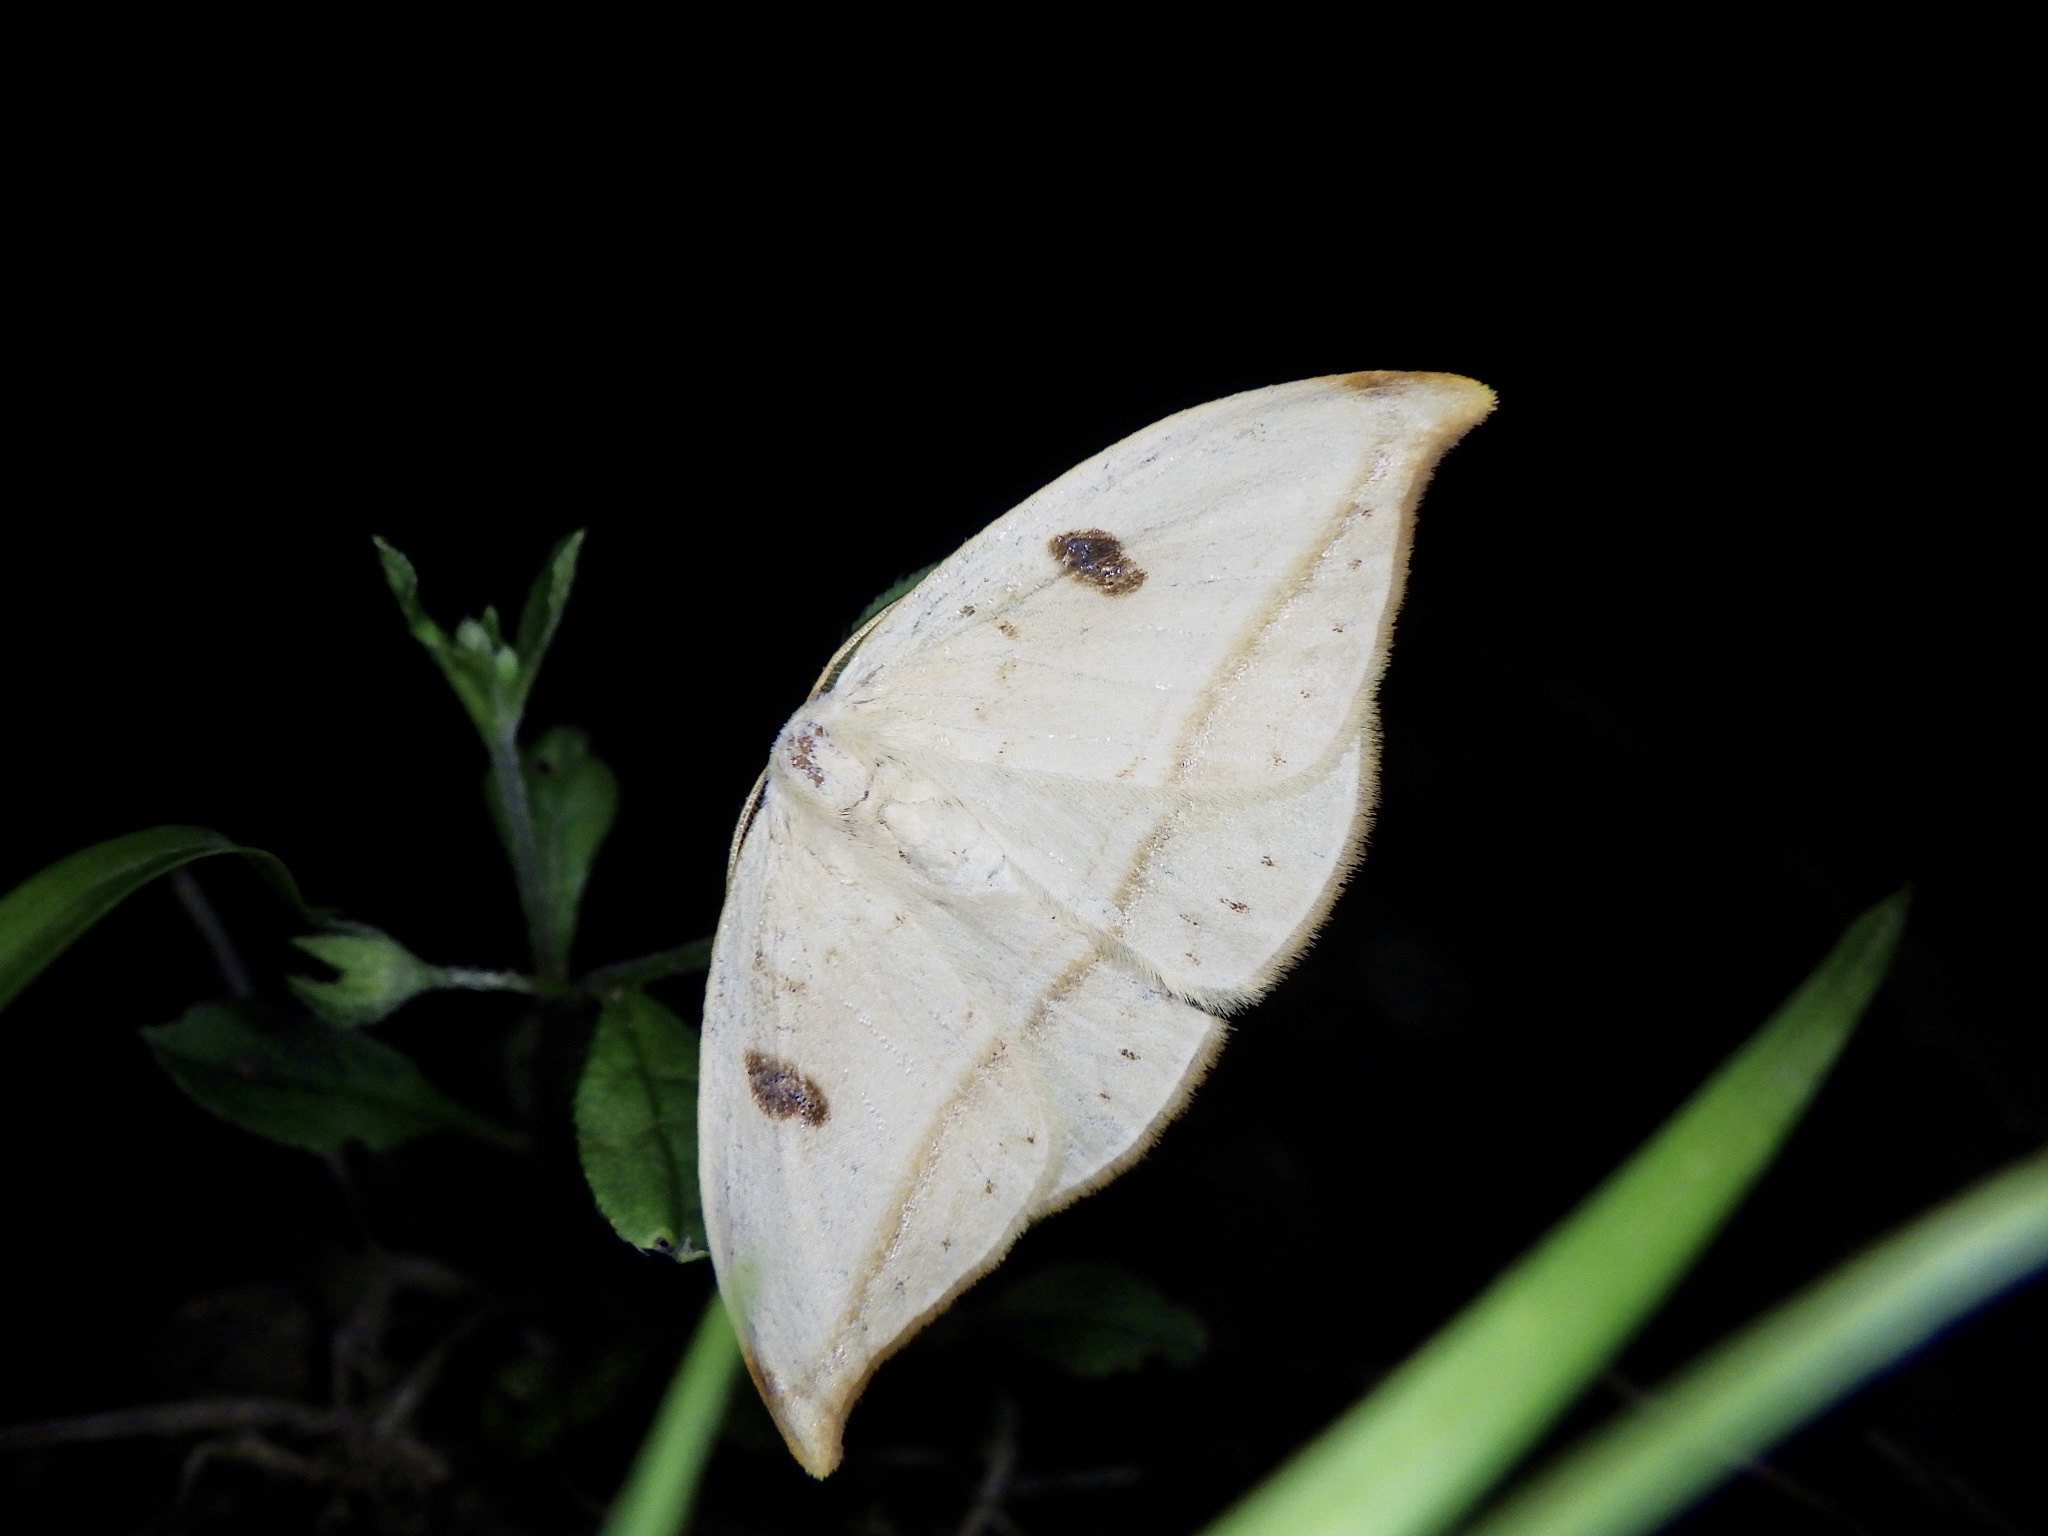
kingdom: Animalia
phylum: Arthropoda
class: Insecta
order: Lepidoptera
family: Drepanidae
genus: Callidrepana
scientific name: Callidrepana patrana
